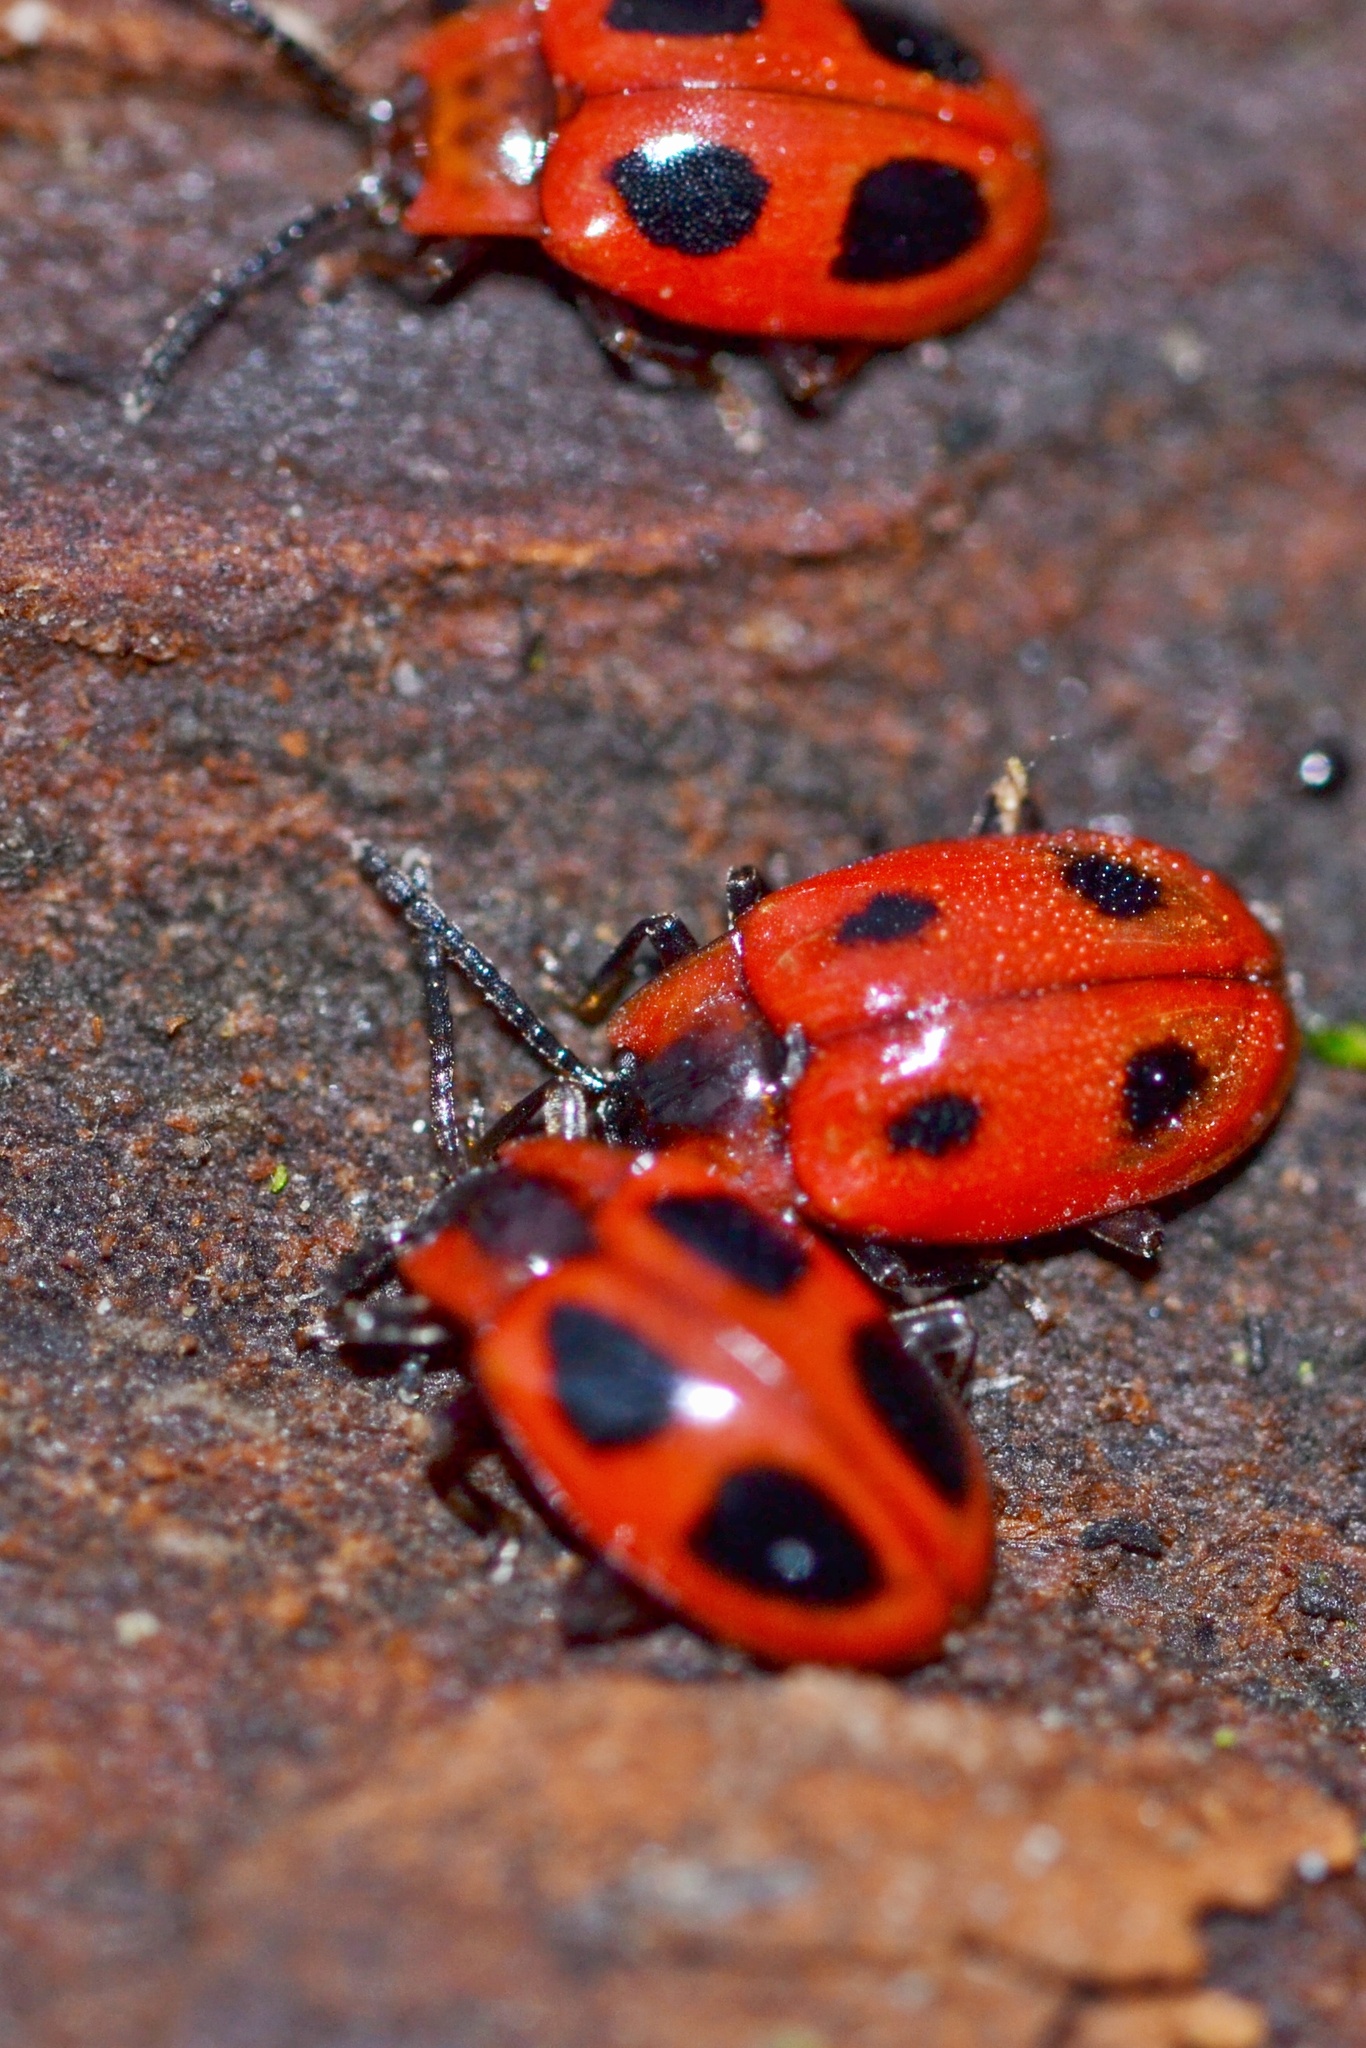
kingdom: Animalia
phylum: Arthropoda
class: Insecta
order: Coleoptera
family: Endomychidae
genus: Endomychus
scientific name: Endomychus coccineus
